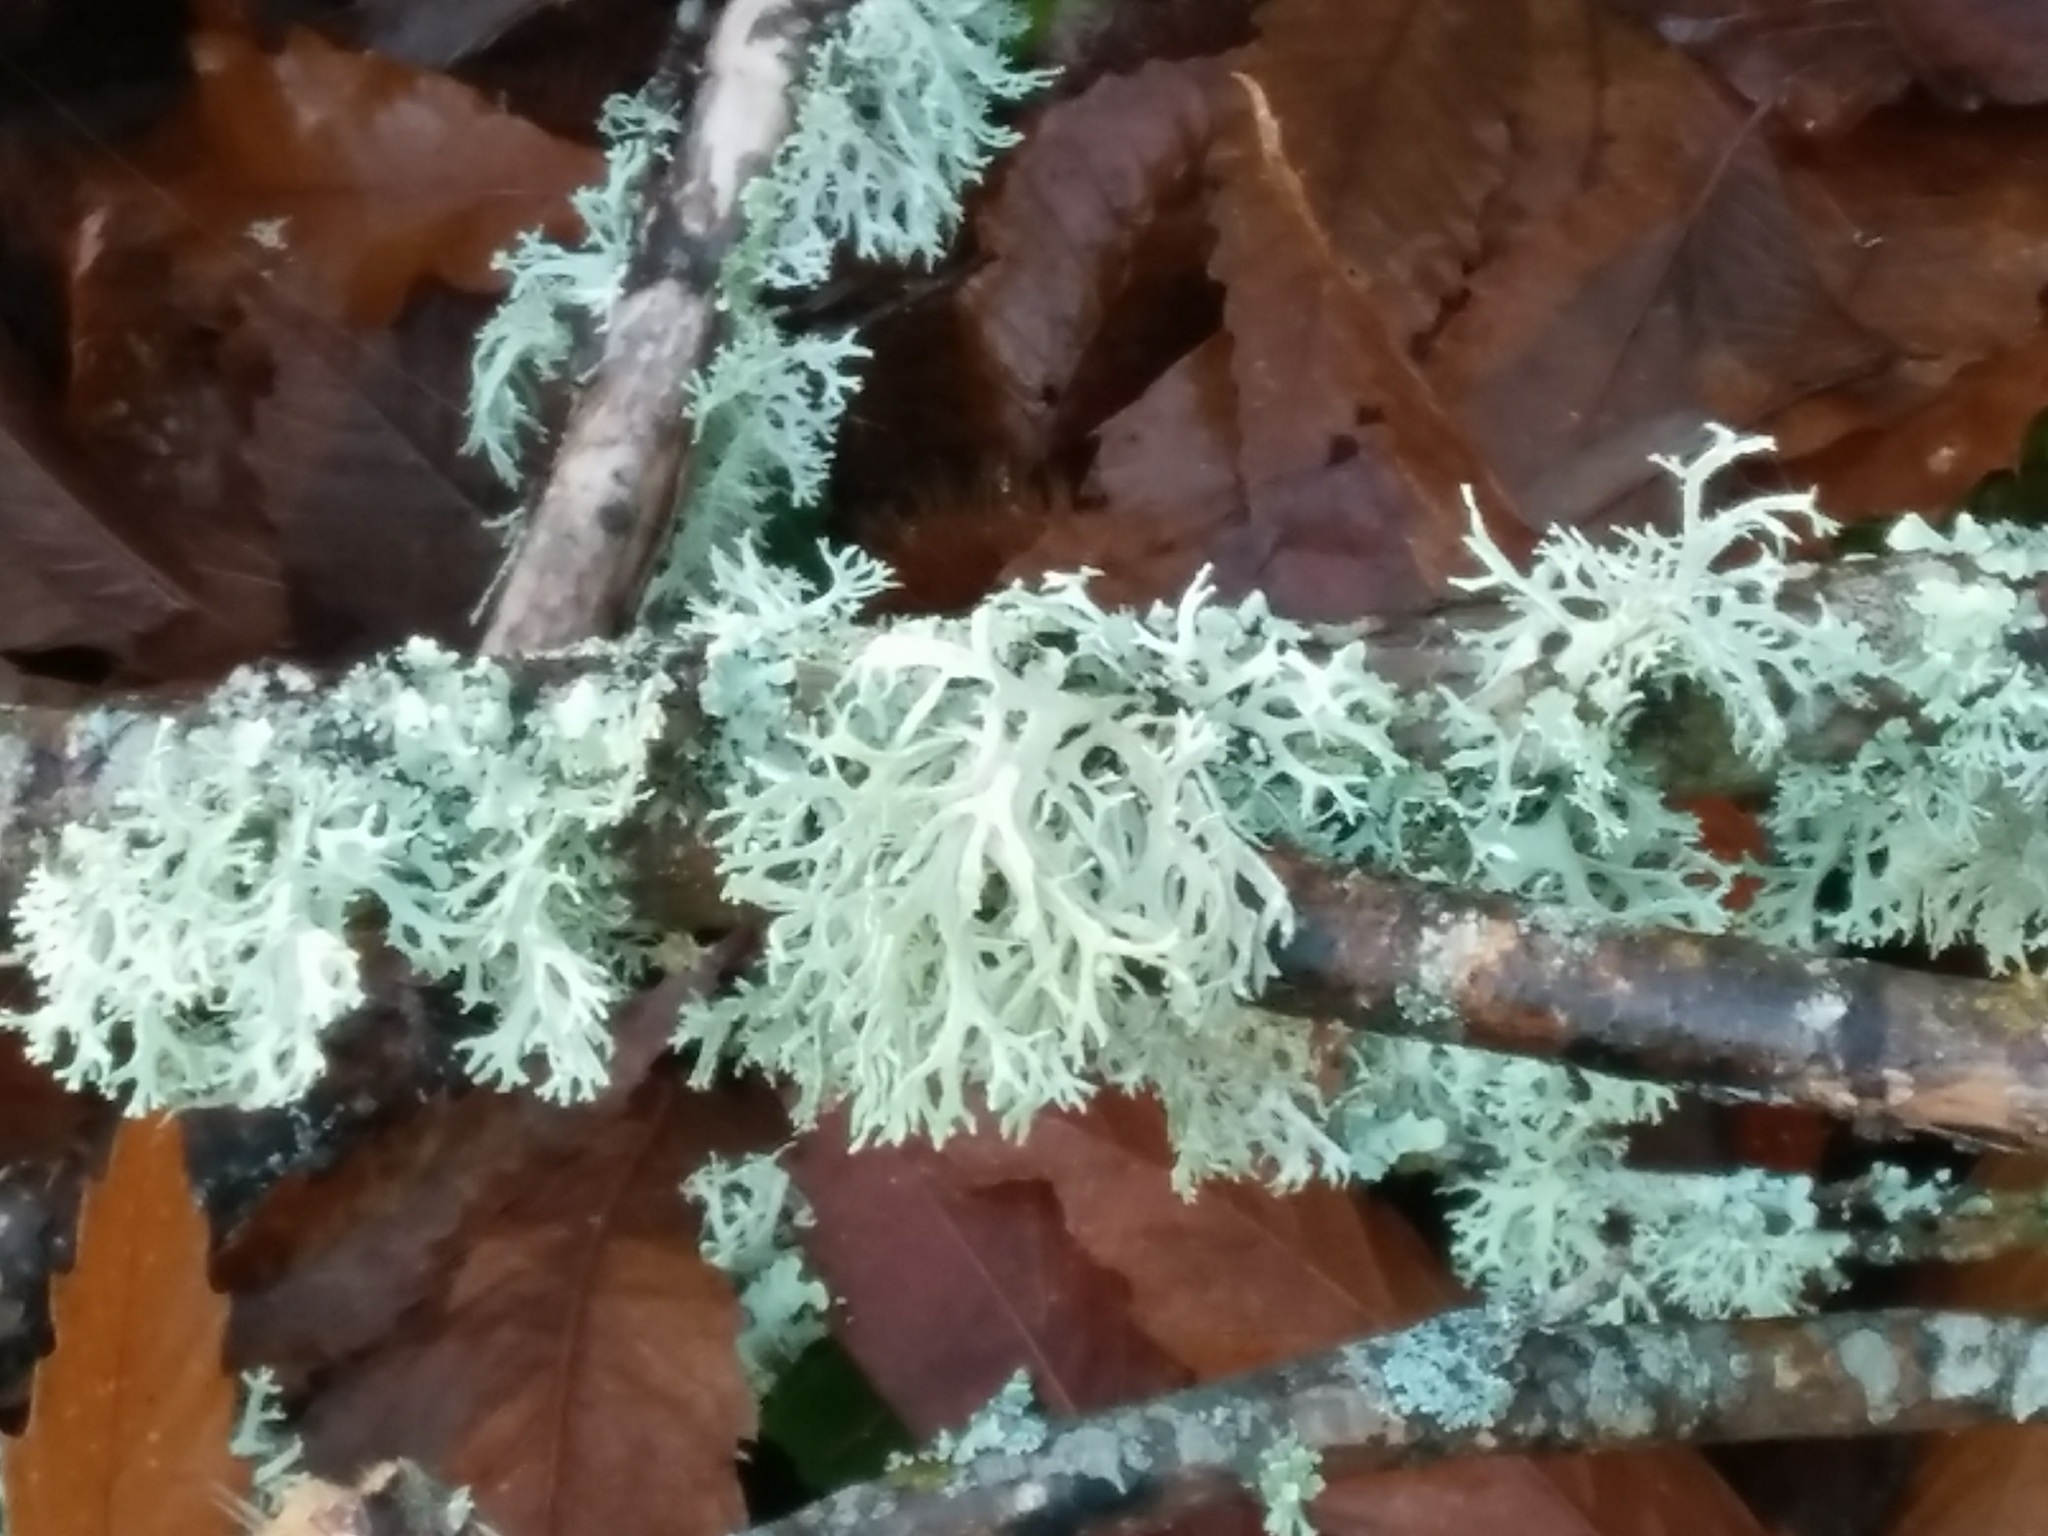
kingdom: Fungi
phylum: Ascomycota
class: Lecanoromycetes
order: Lecanorales
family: Parmeliaceae
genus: Evernia
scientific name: Evernia prunastri
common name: Oak moss
